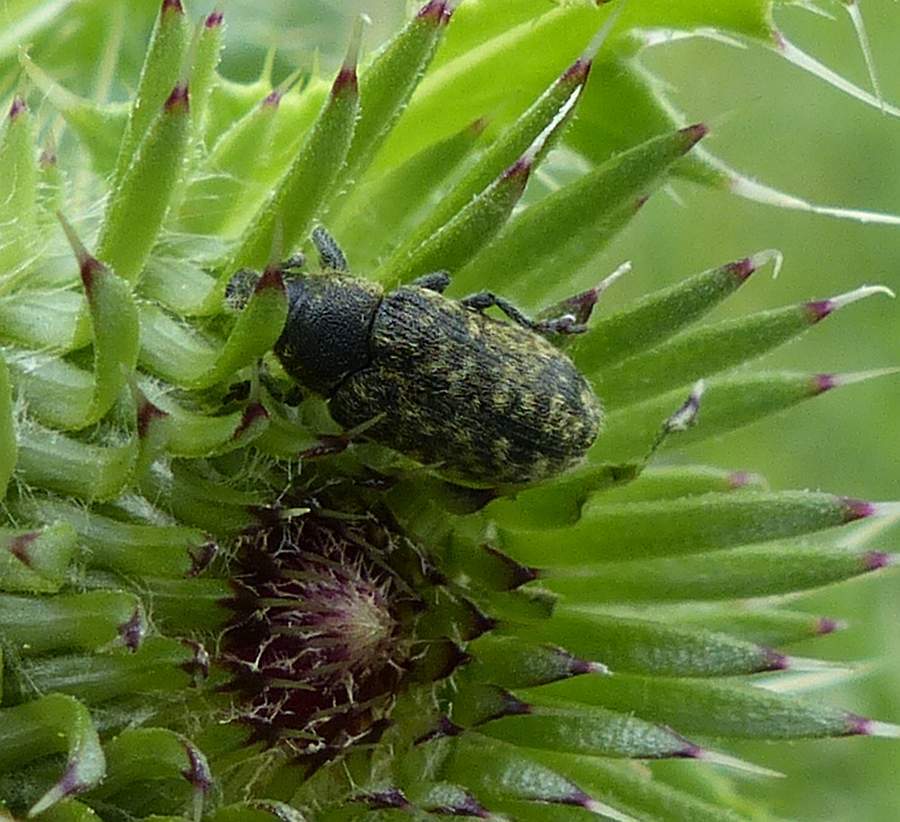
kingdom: Animalia
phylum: Arthropoda
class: Insecta
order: Coleoptera
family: Curculionidae
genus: Rhinocyllus
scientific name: Rhinocyllus conicus
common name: Weevil
